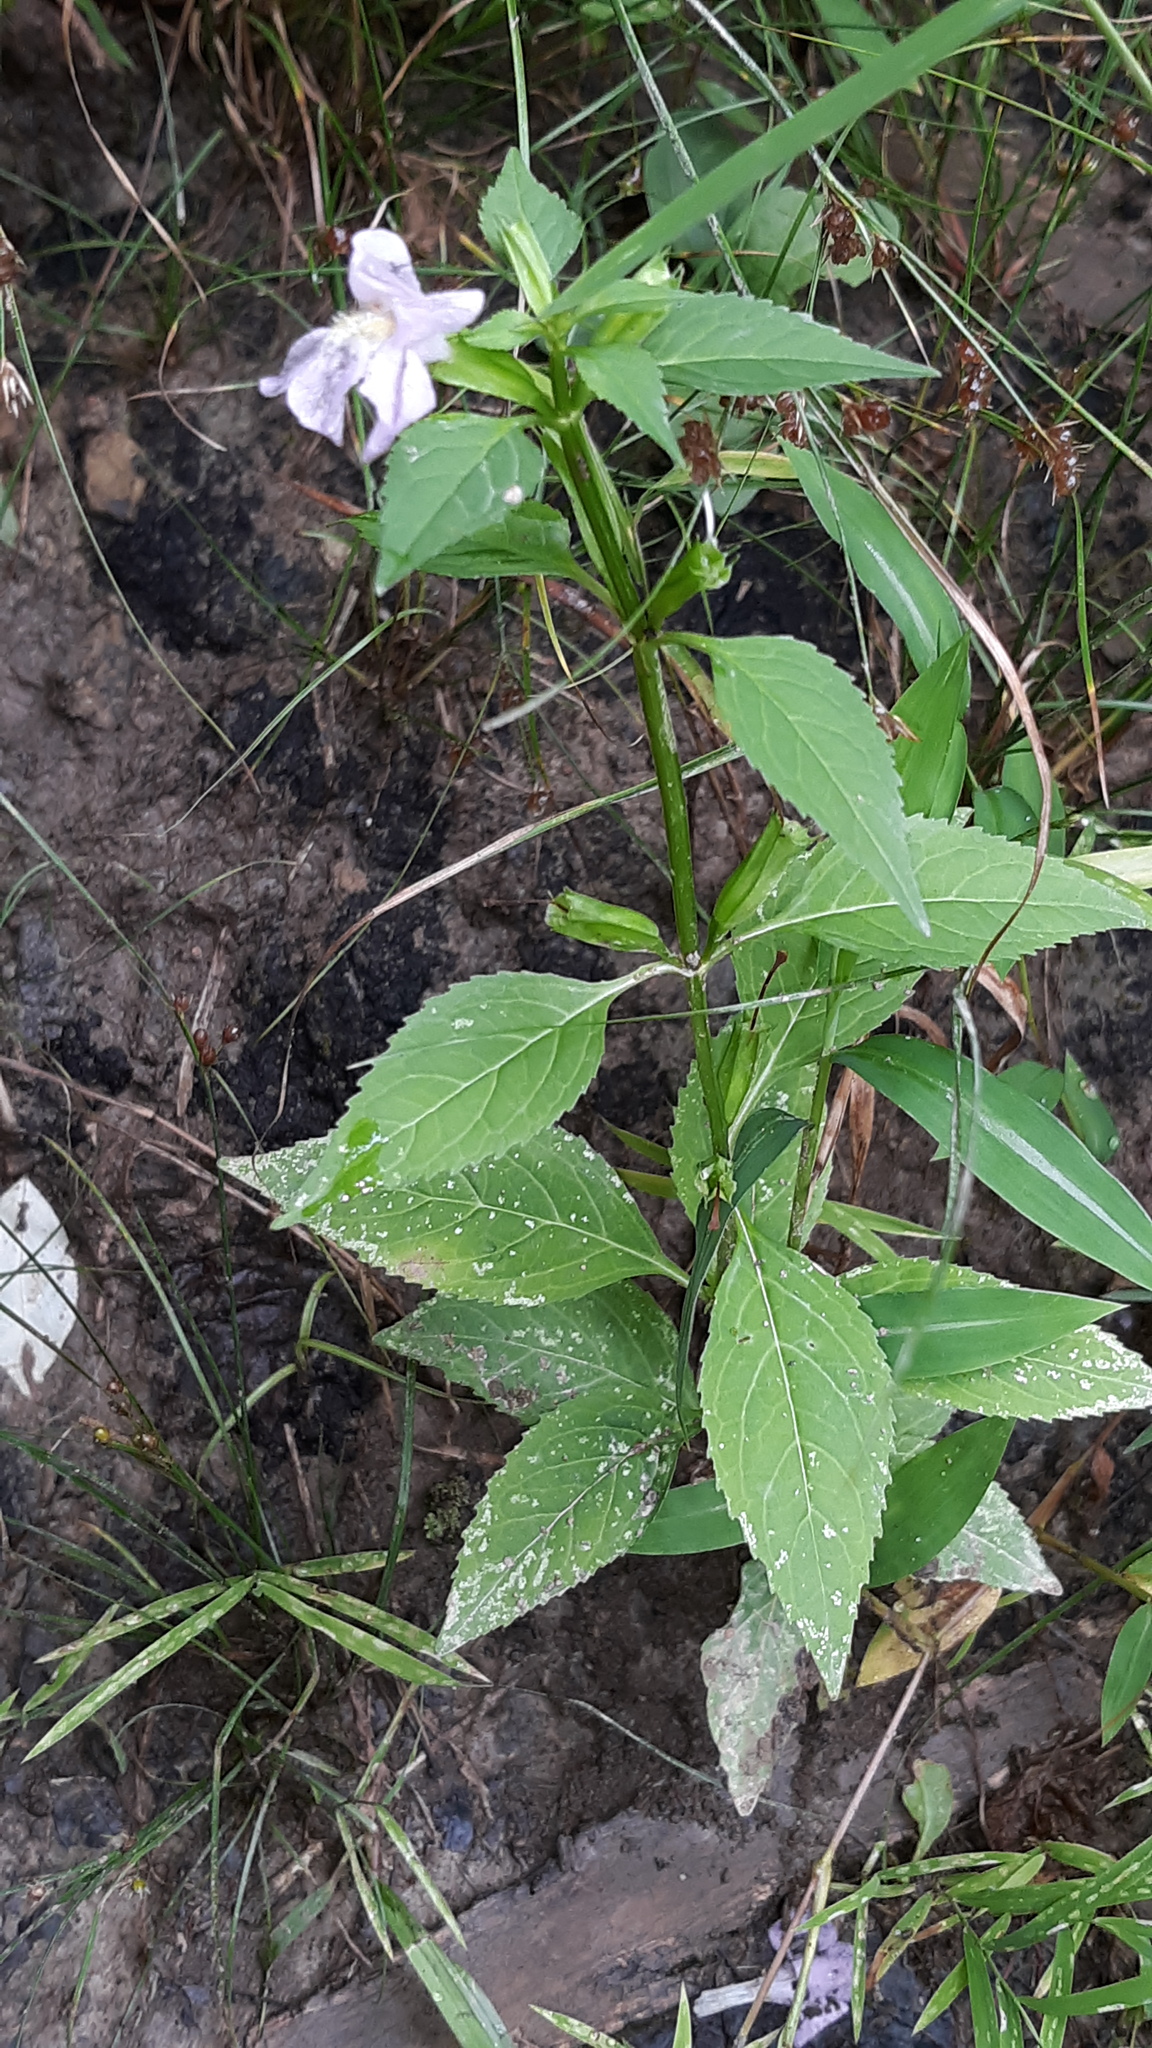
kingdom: Plantae
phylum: Tracheophyta
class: Magnoliopsida
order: Lamiales
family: Phrymaceae
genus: Mimulus
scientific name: Mimulus alatus
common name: Sharp-wing monkey-flower
